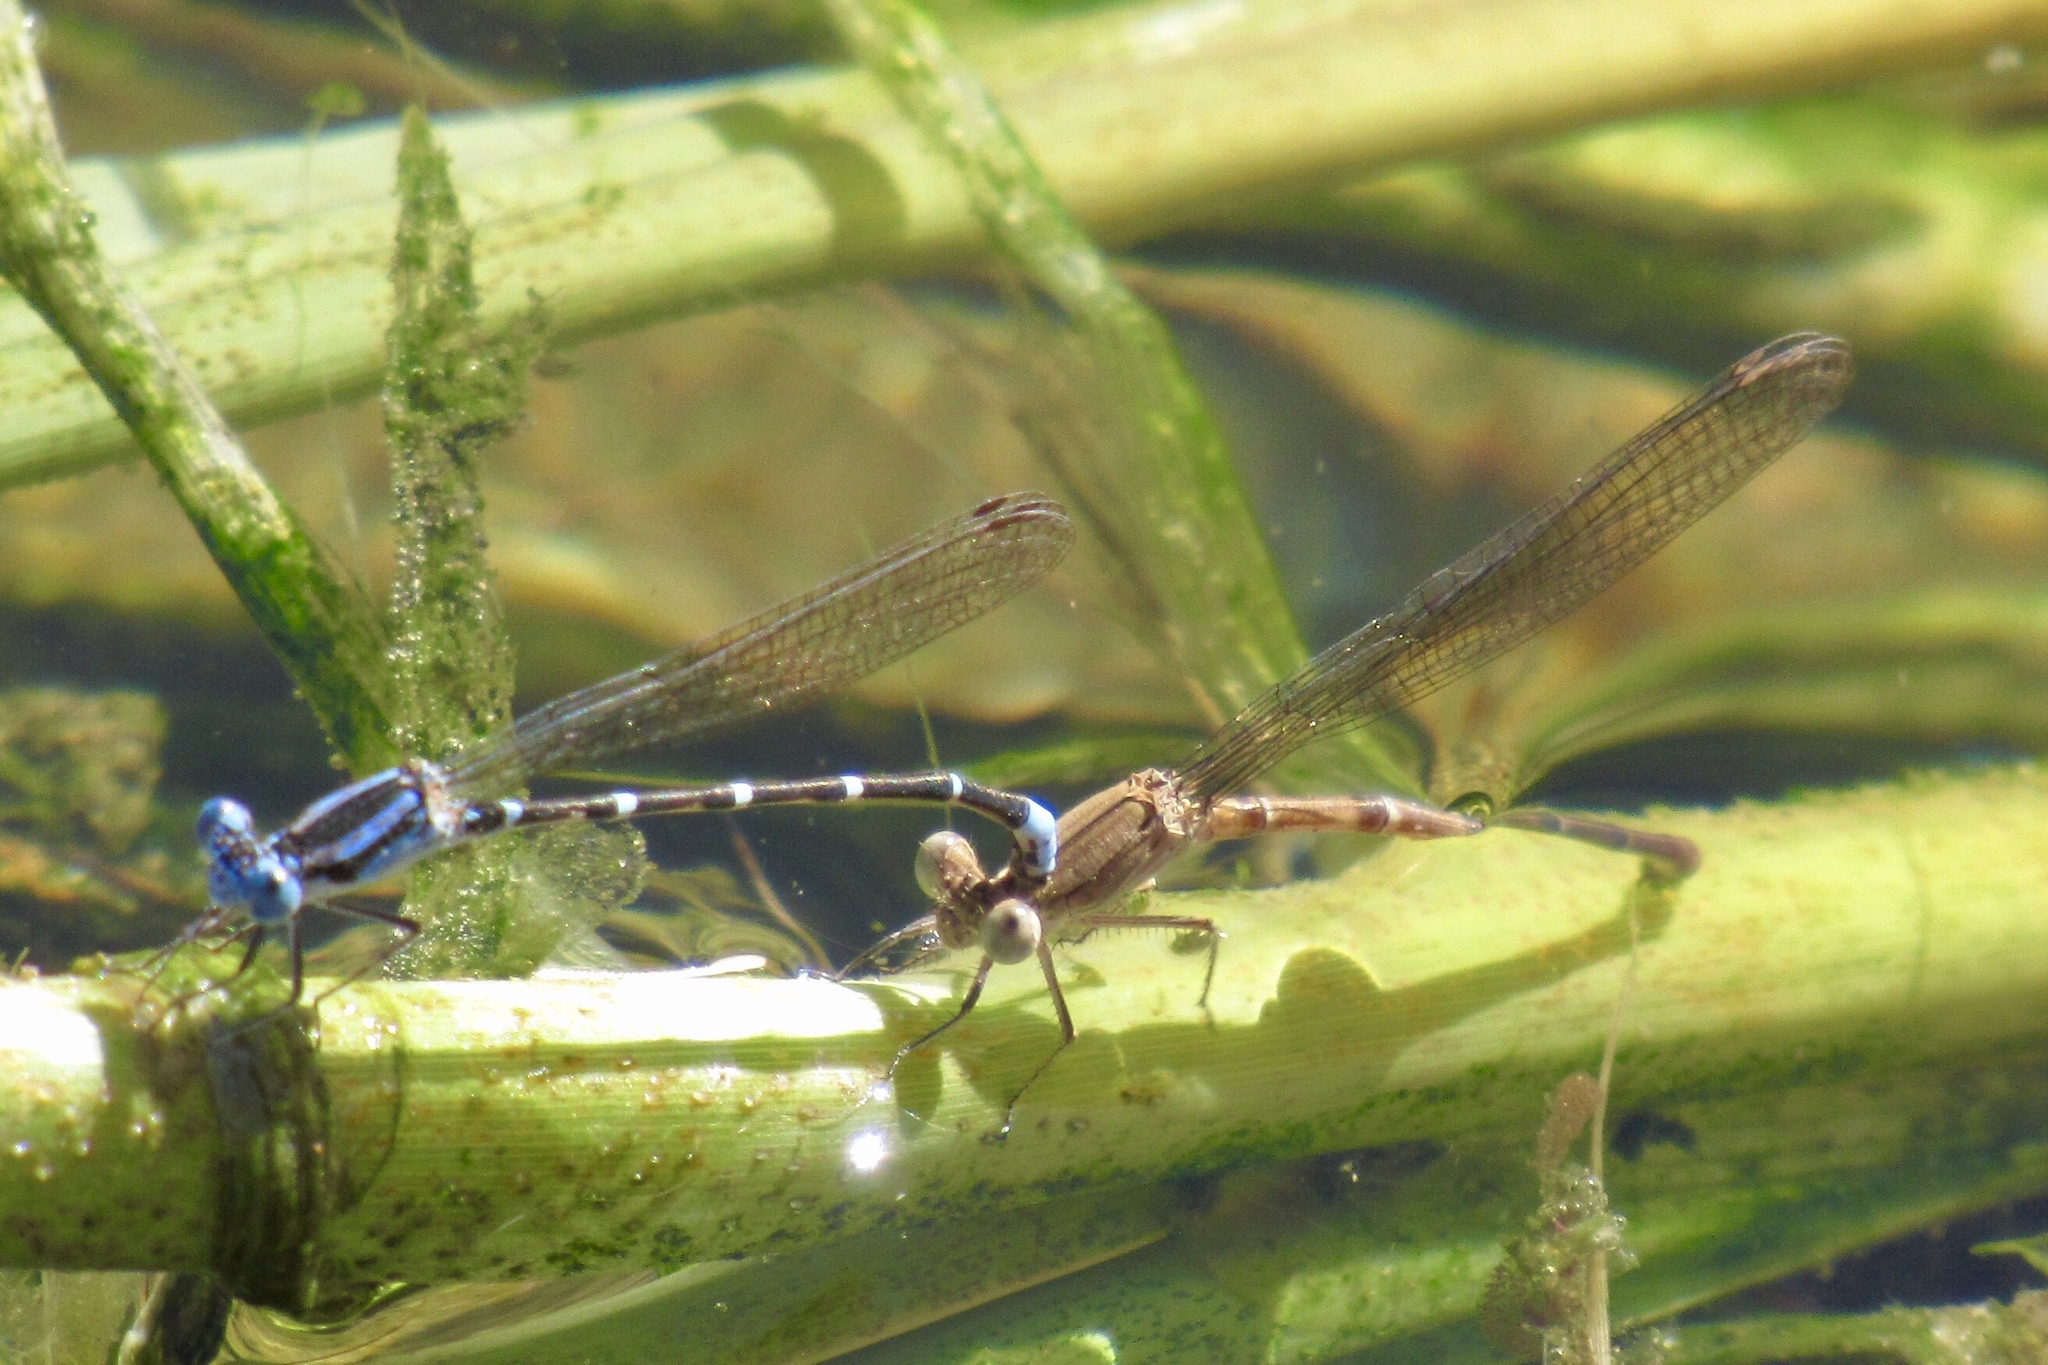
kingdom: Animalia
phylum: Arthropoda
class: Insecta
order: Odonata
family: Coenagrionidae
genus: Argia
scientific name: Argia sedula
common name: Blue-ringed dancer
